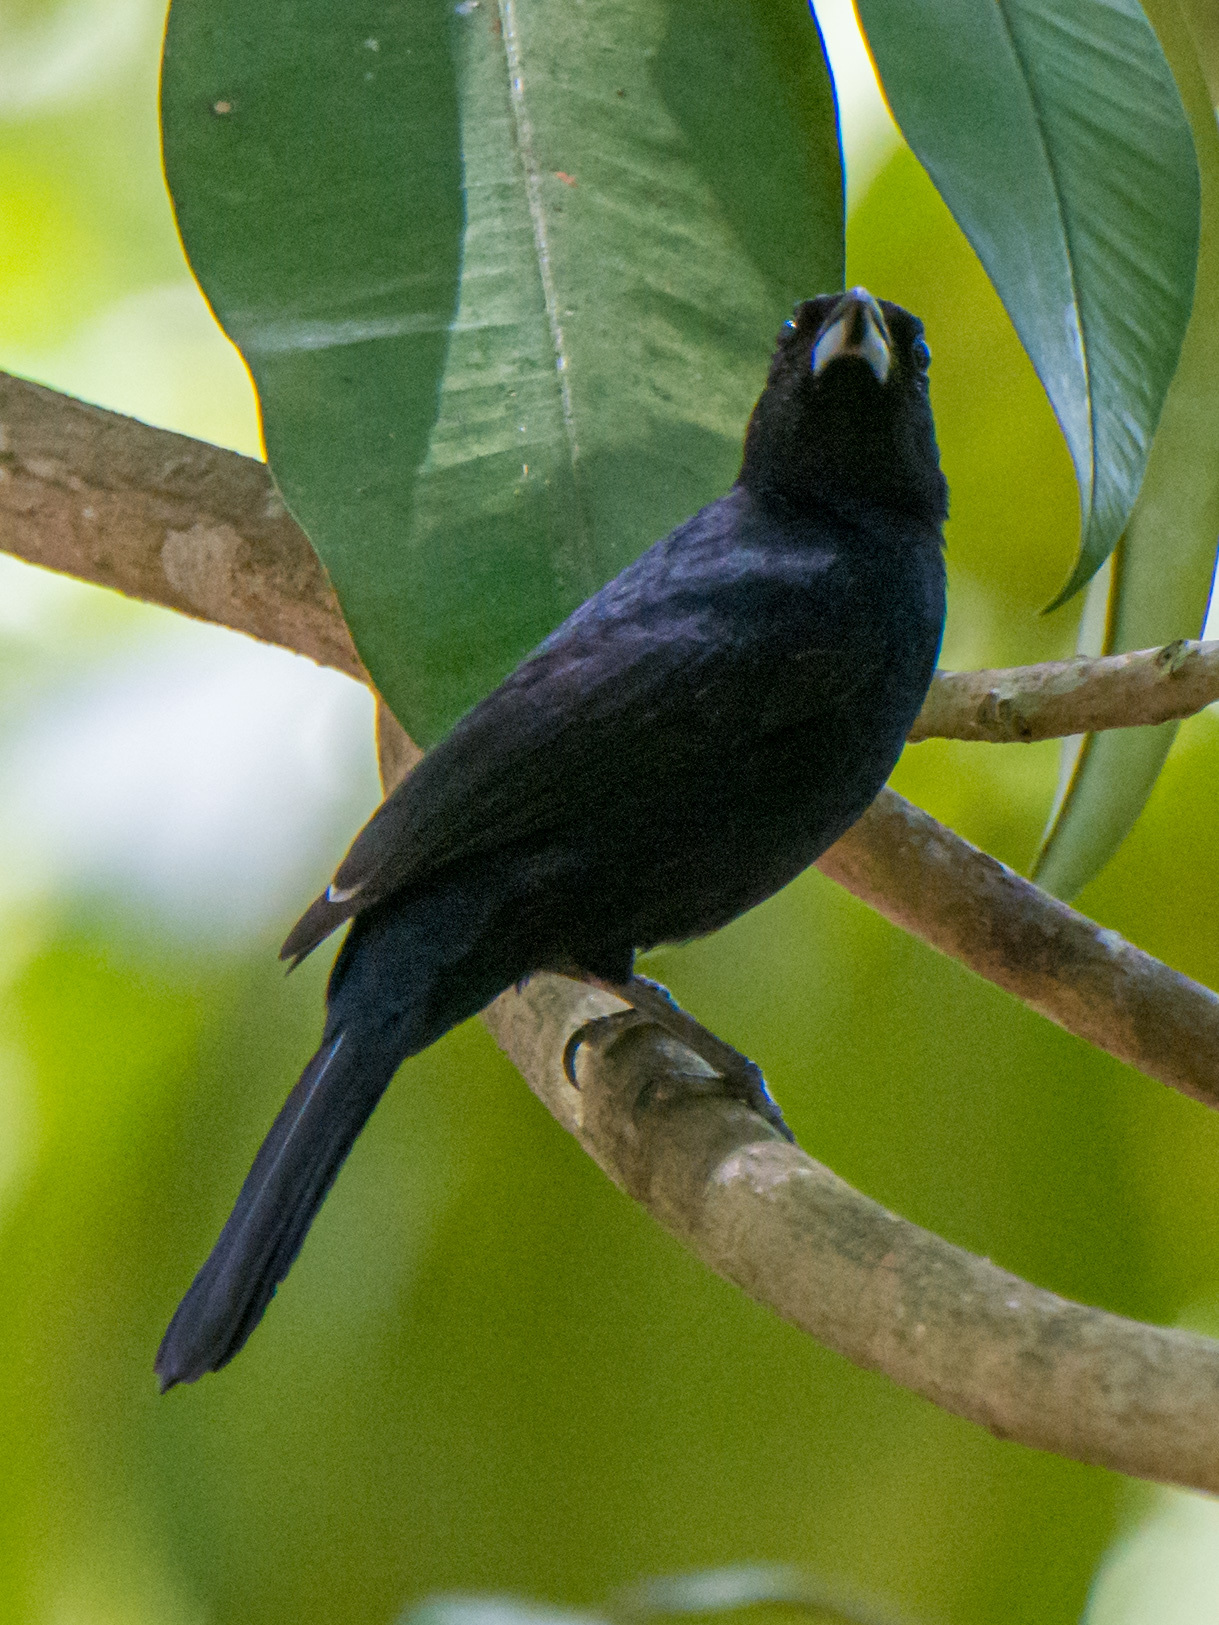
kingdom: Animalia
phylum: Chordata
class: Aves
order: Passeriformes
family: Thraupidae
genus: Tachyphonus
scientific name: Tachyphonus rufus
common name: White-lined tanager
